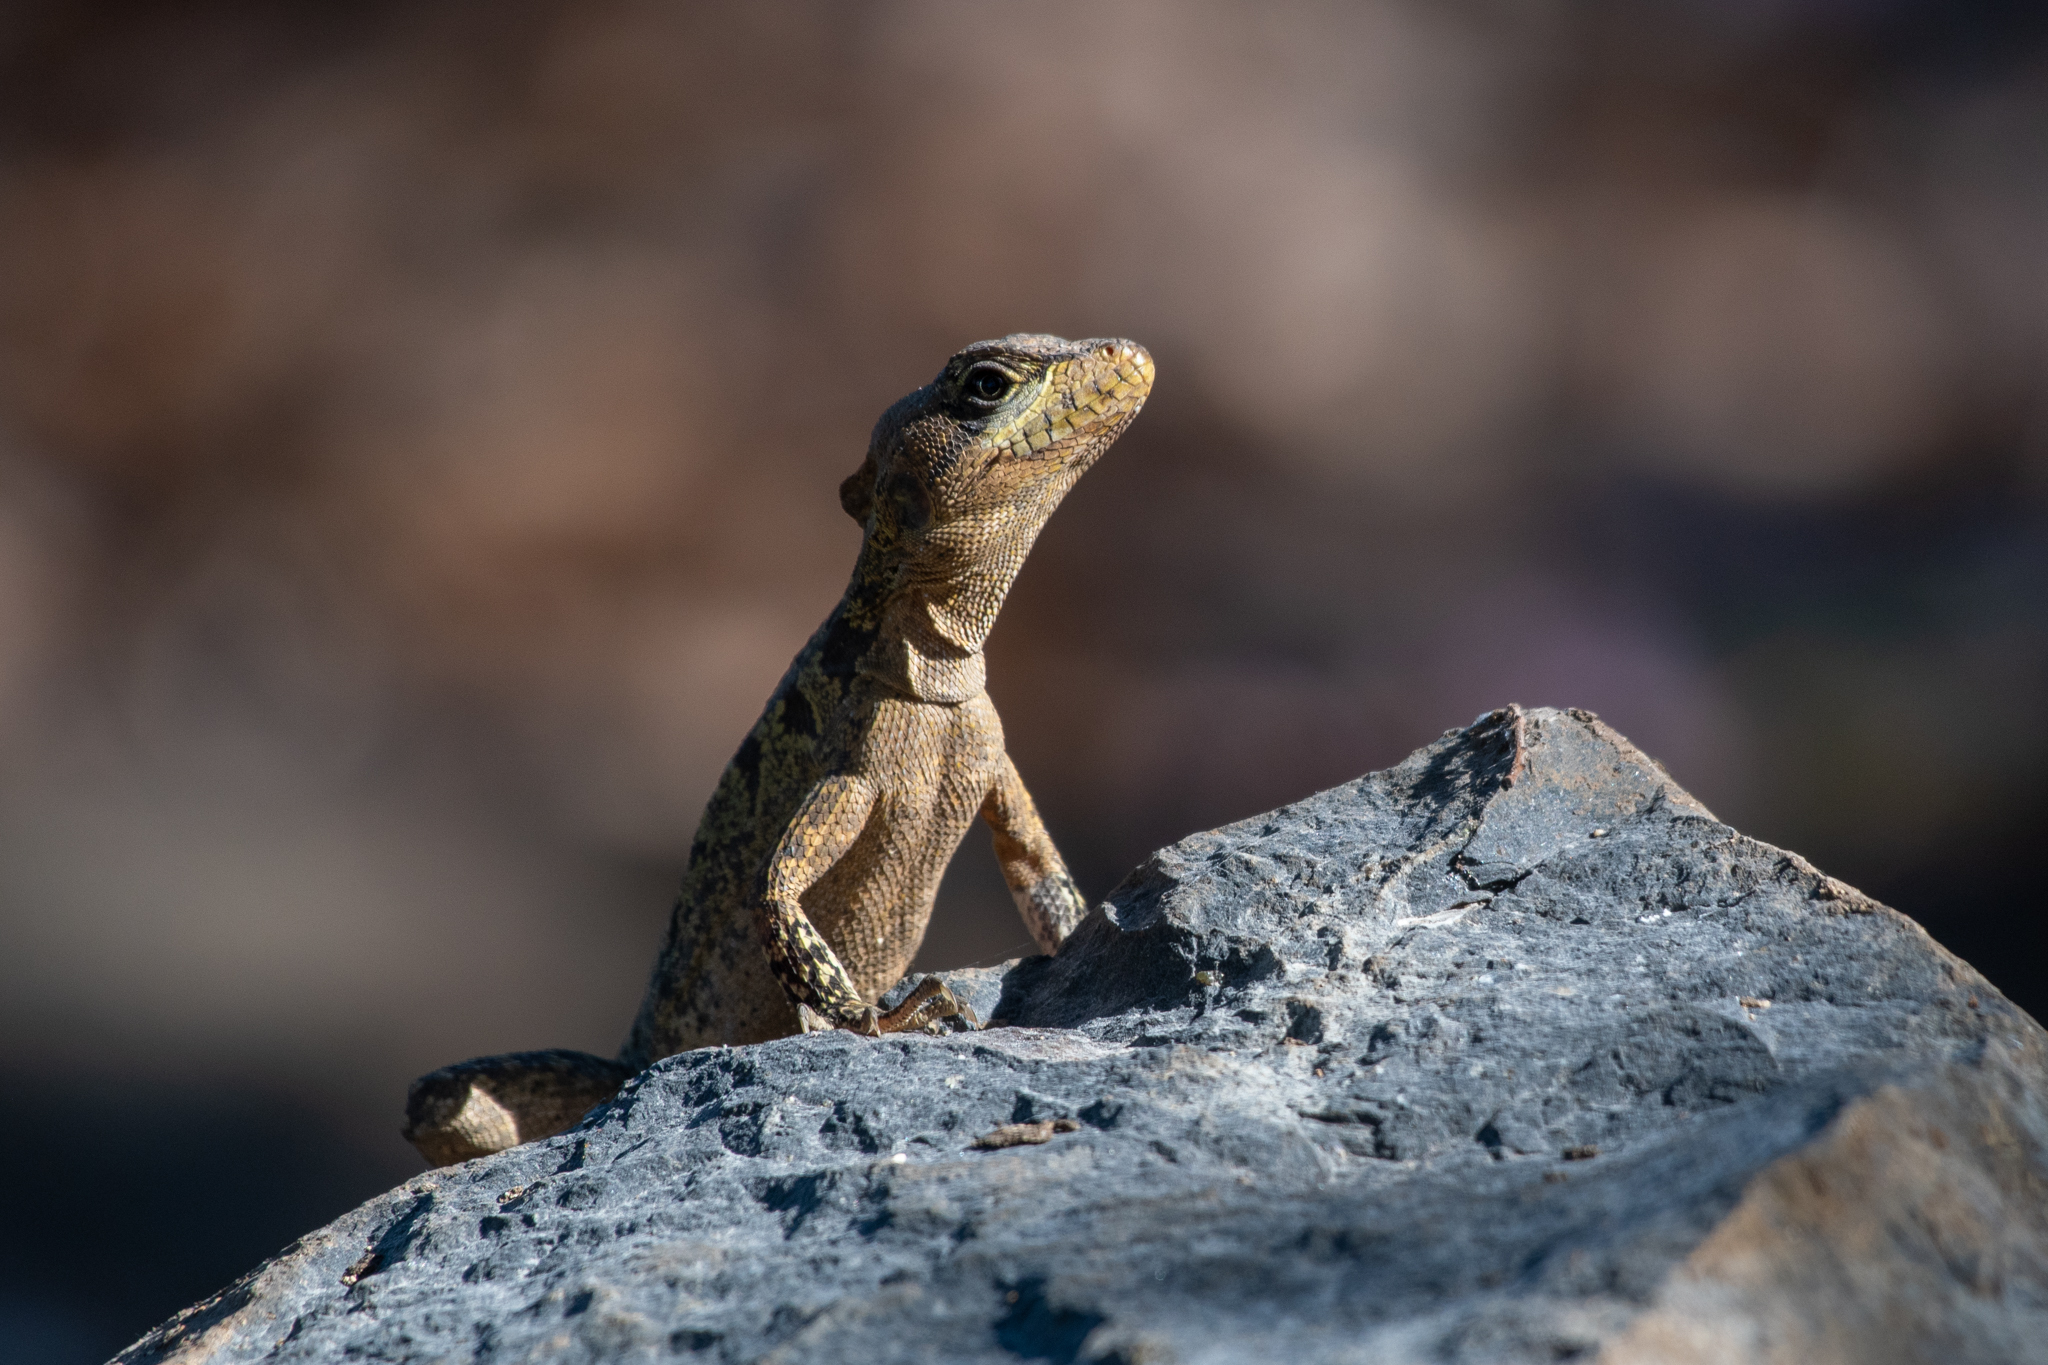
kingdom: Animalia
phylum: Chordata
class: Squamata
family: Corytophanidae
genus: Basiliscus
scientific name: Basiliscus vittatus
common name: Brown basilisk
